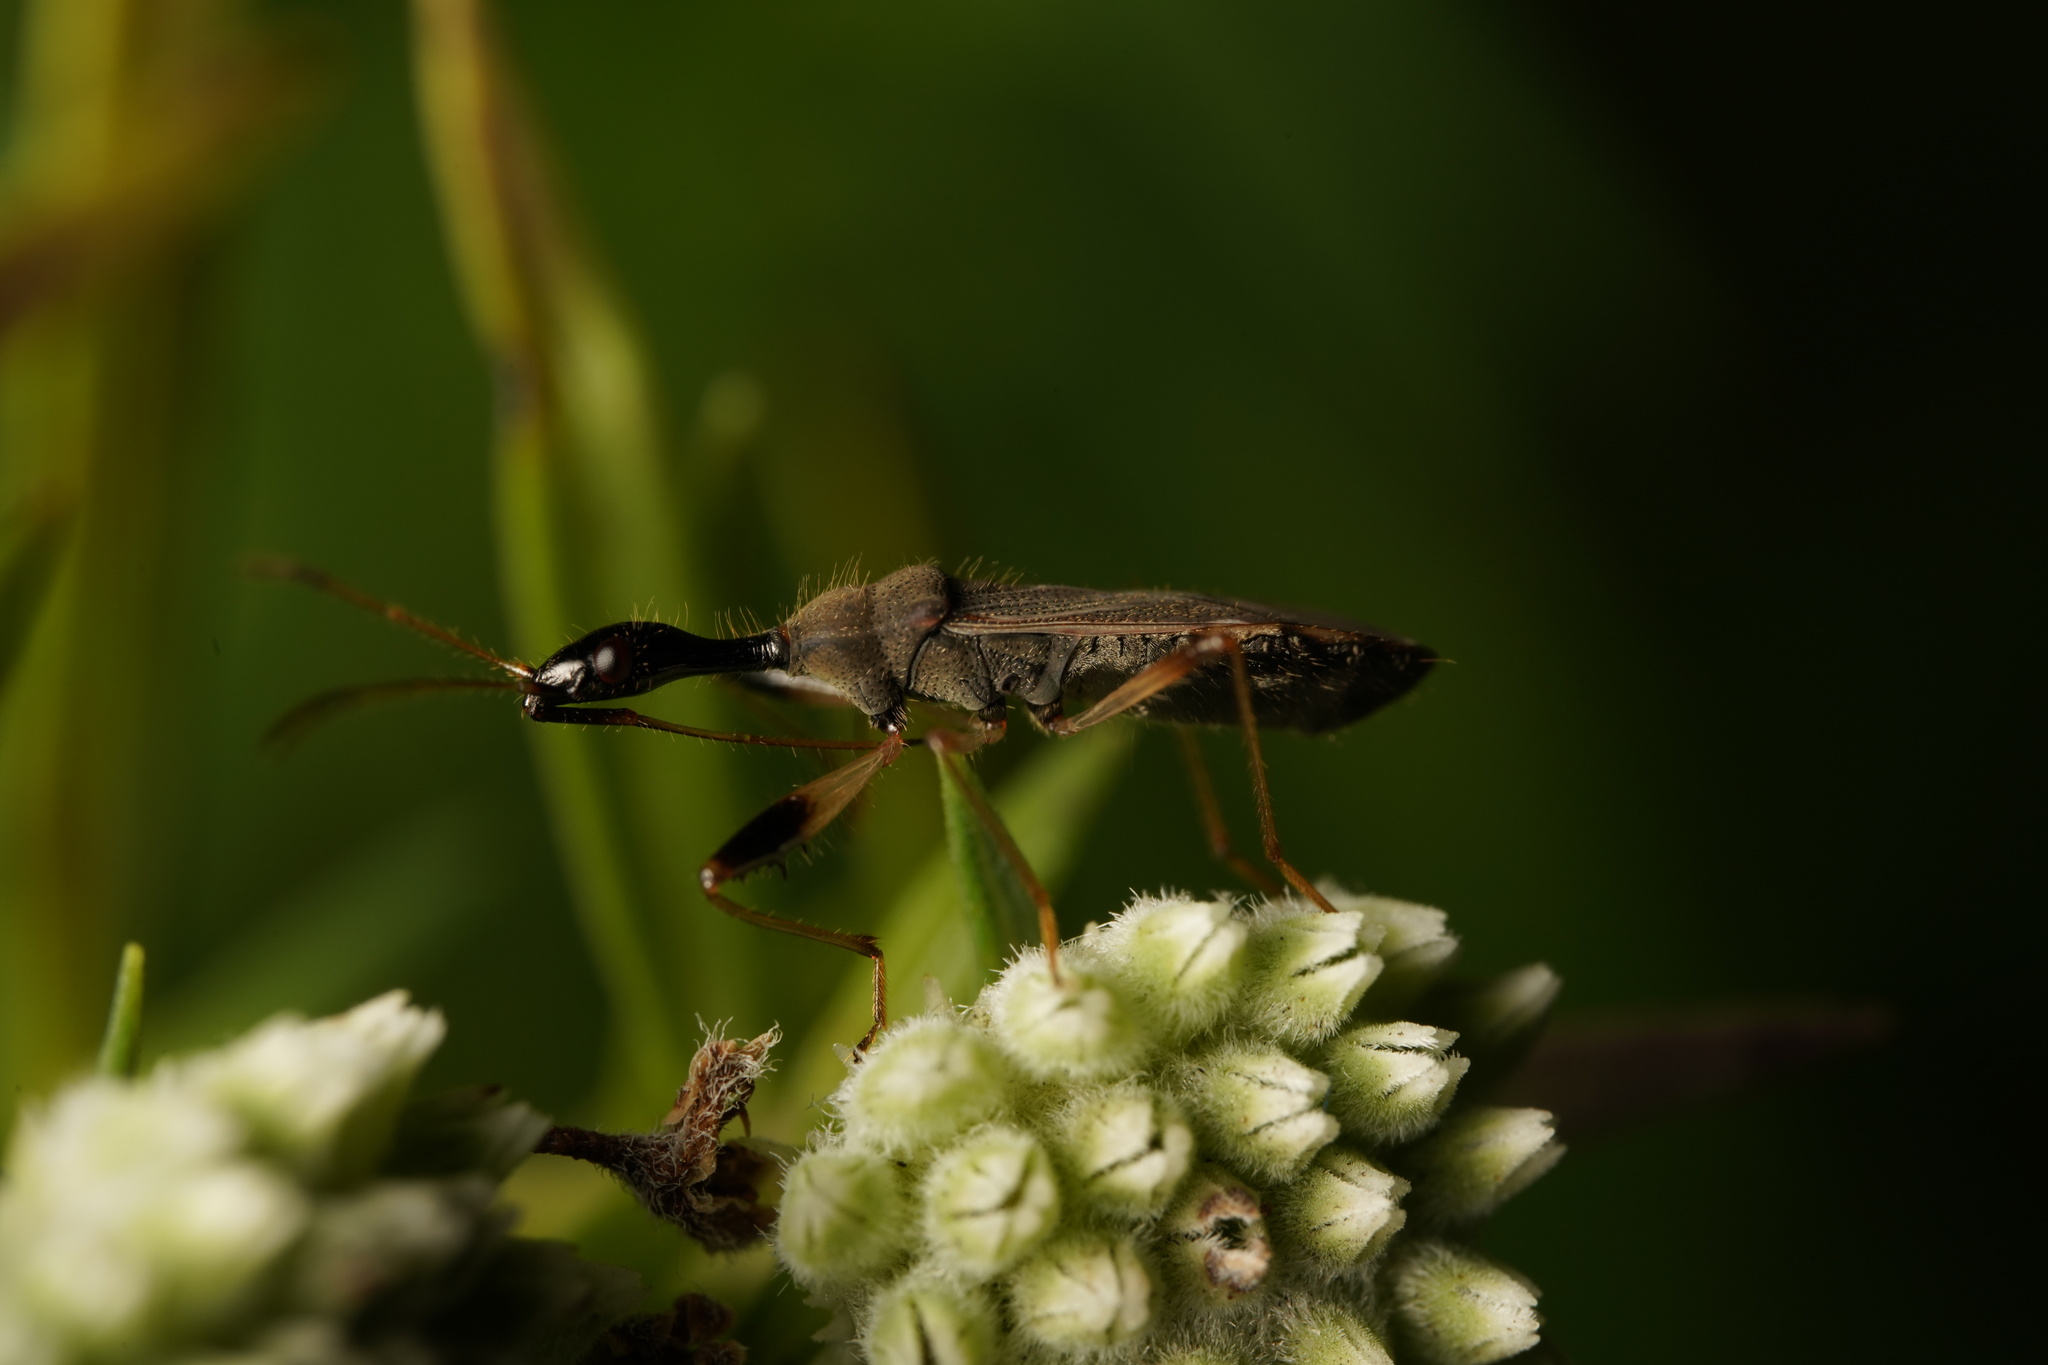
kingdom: Animalia
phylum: Arthropoda
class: Insecta
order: Hemiptera
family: Rhyparochromidae
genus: Myodocha
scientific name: Myodocha serripes
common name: Long-necked seed bug
